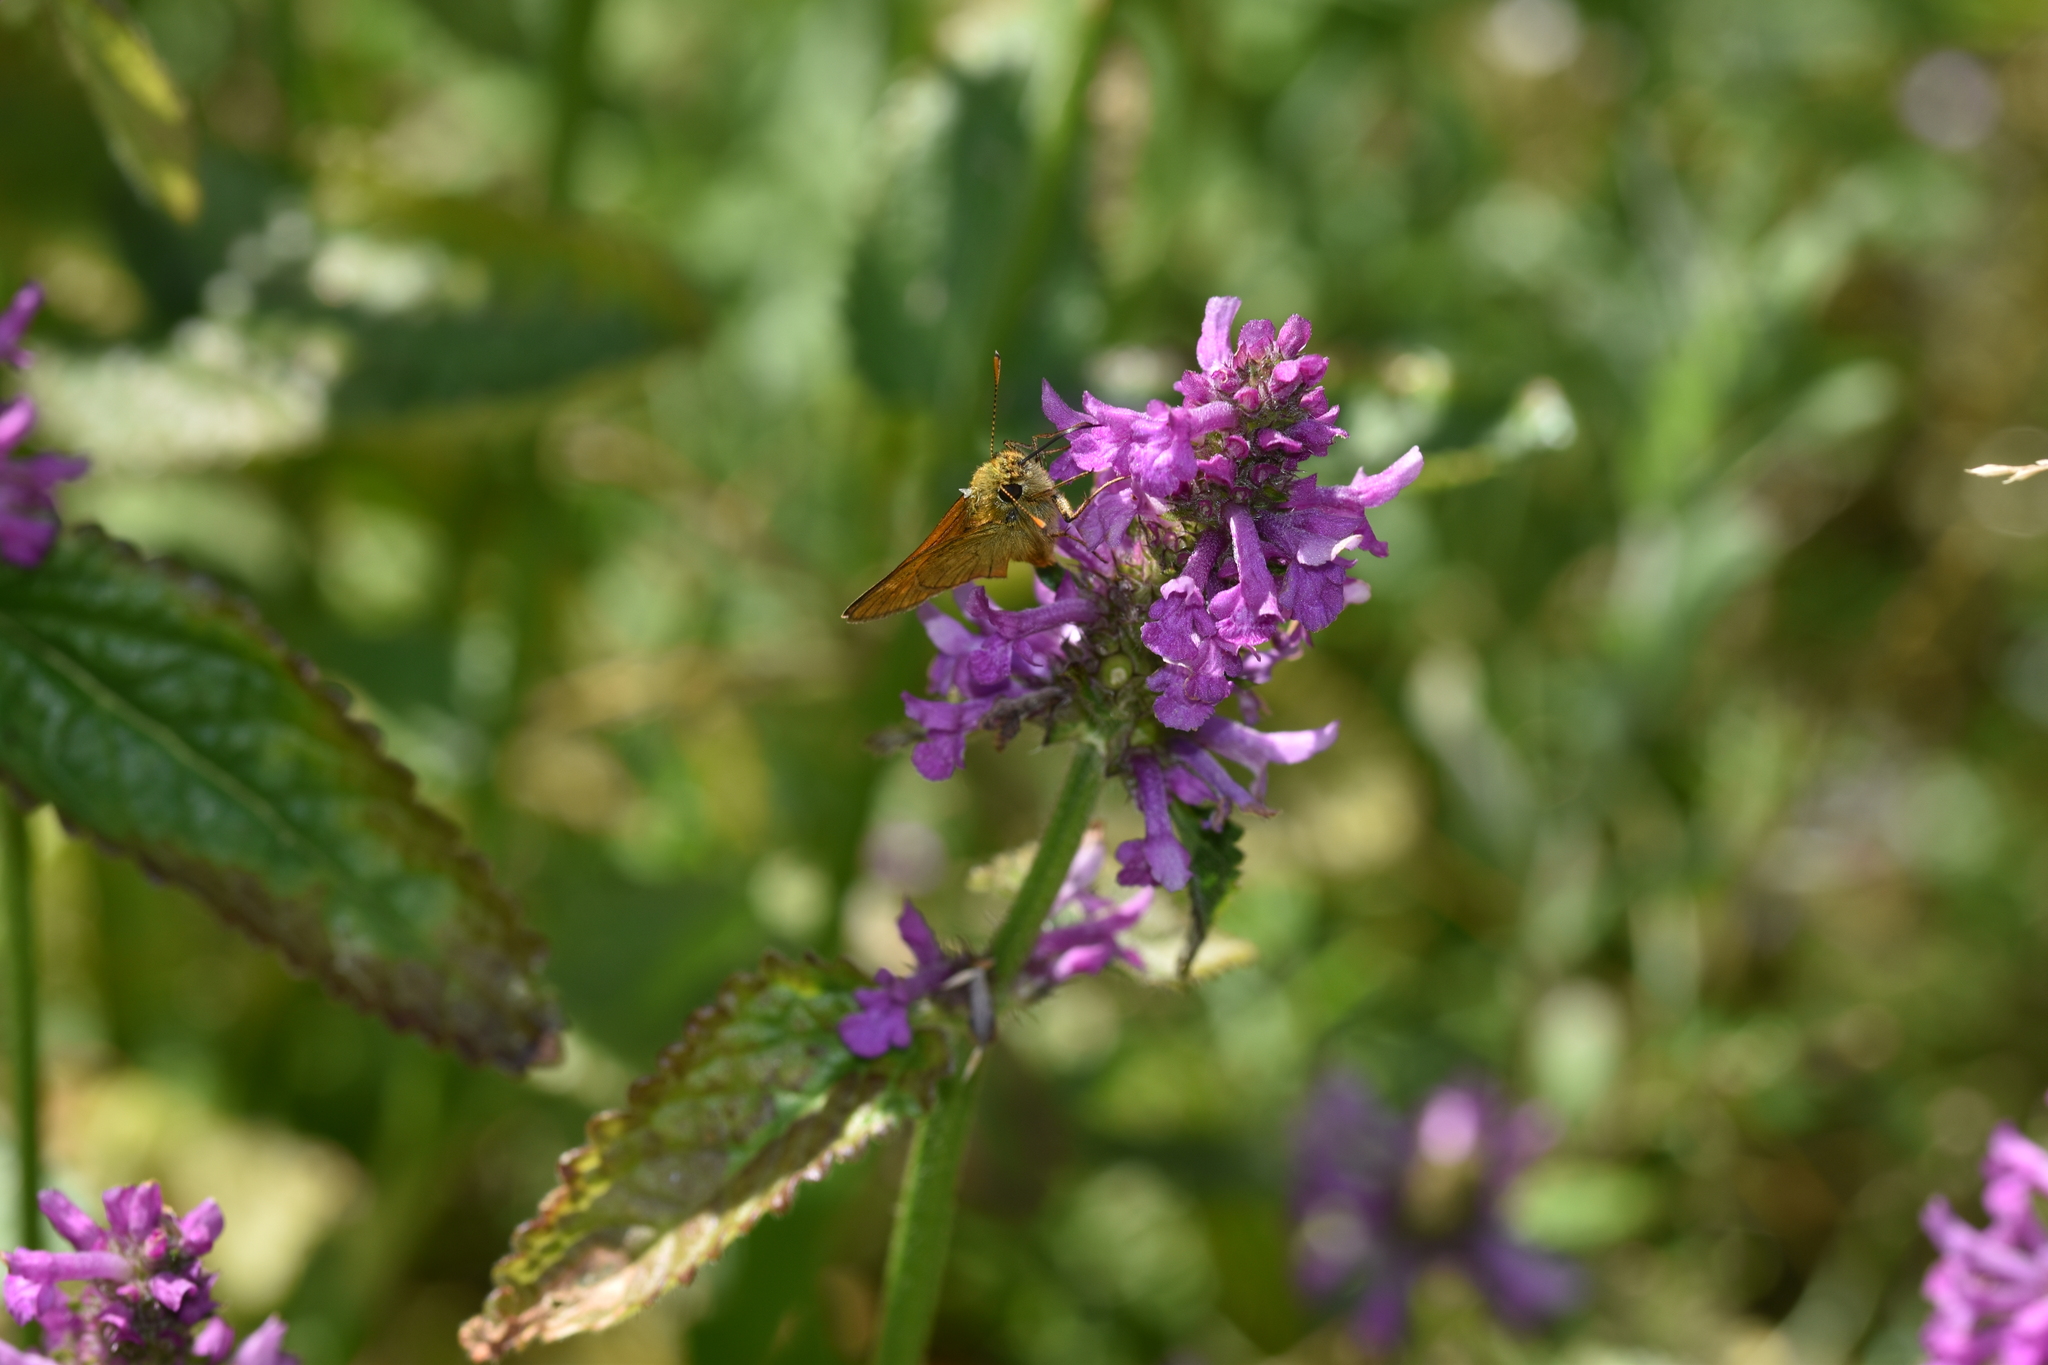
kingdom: Animalia
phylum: Arthropoda
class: Insecta
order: Lepidoptera
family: Hesperiidae
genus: Ochlodes
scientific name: Ochlodes venata
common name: Large skipper
